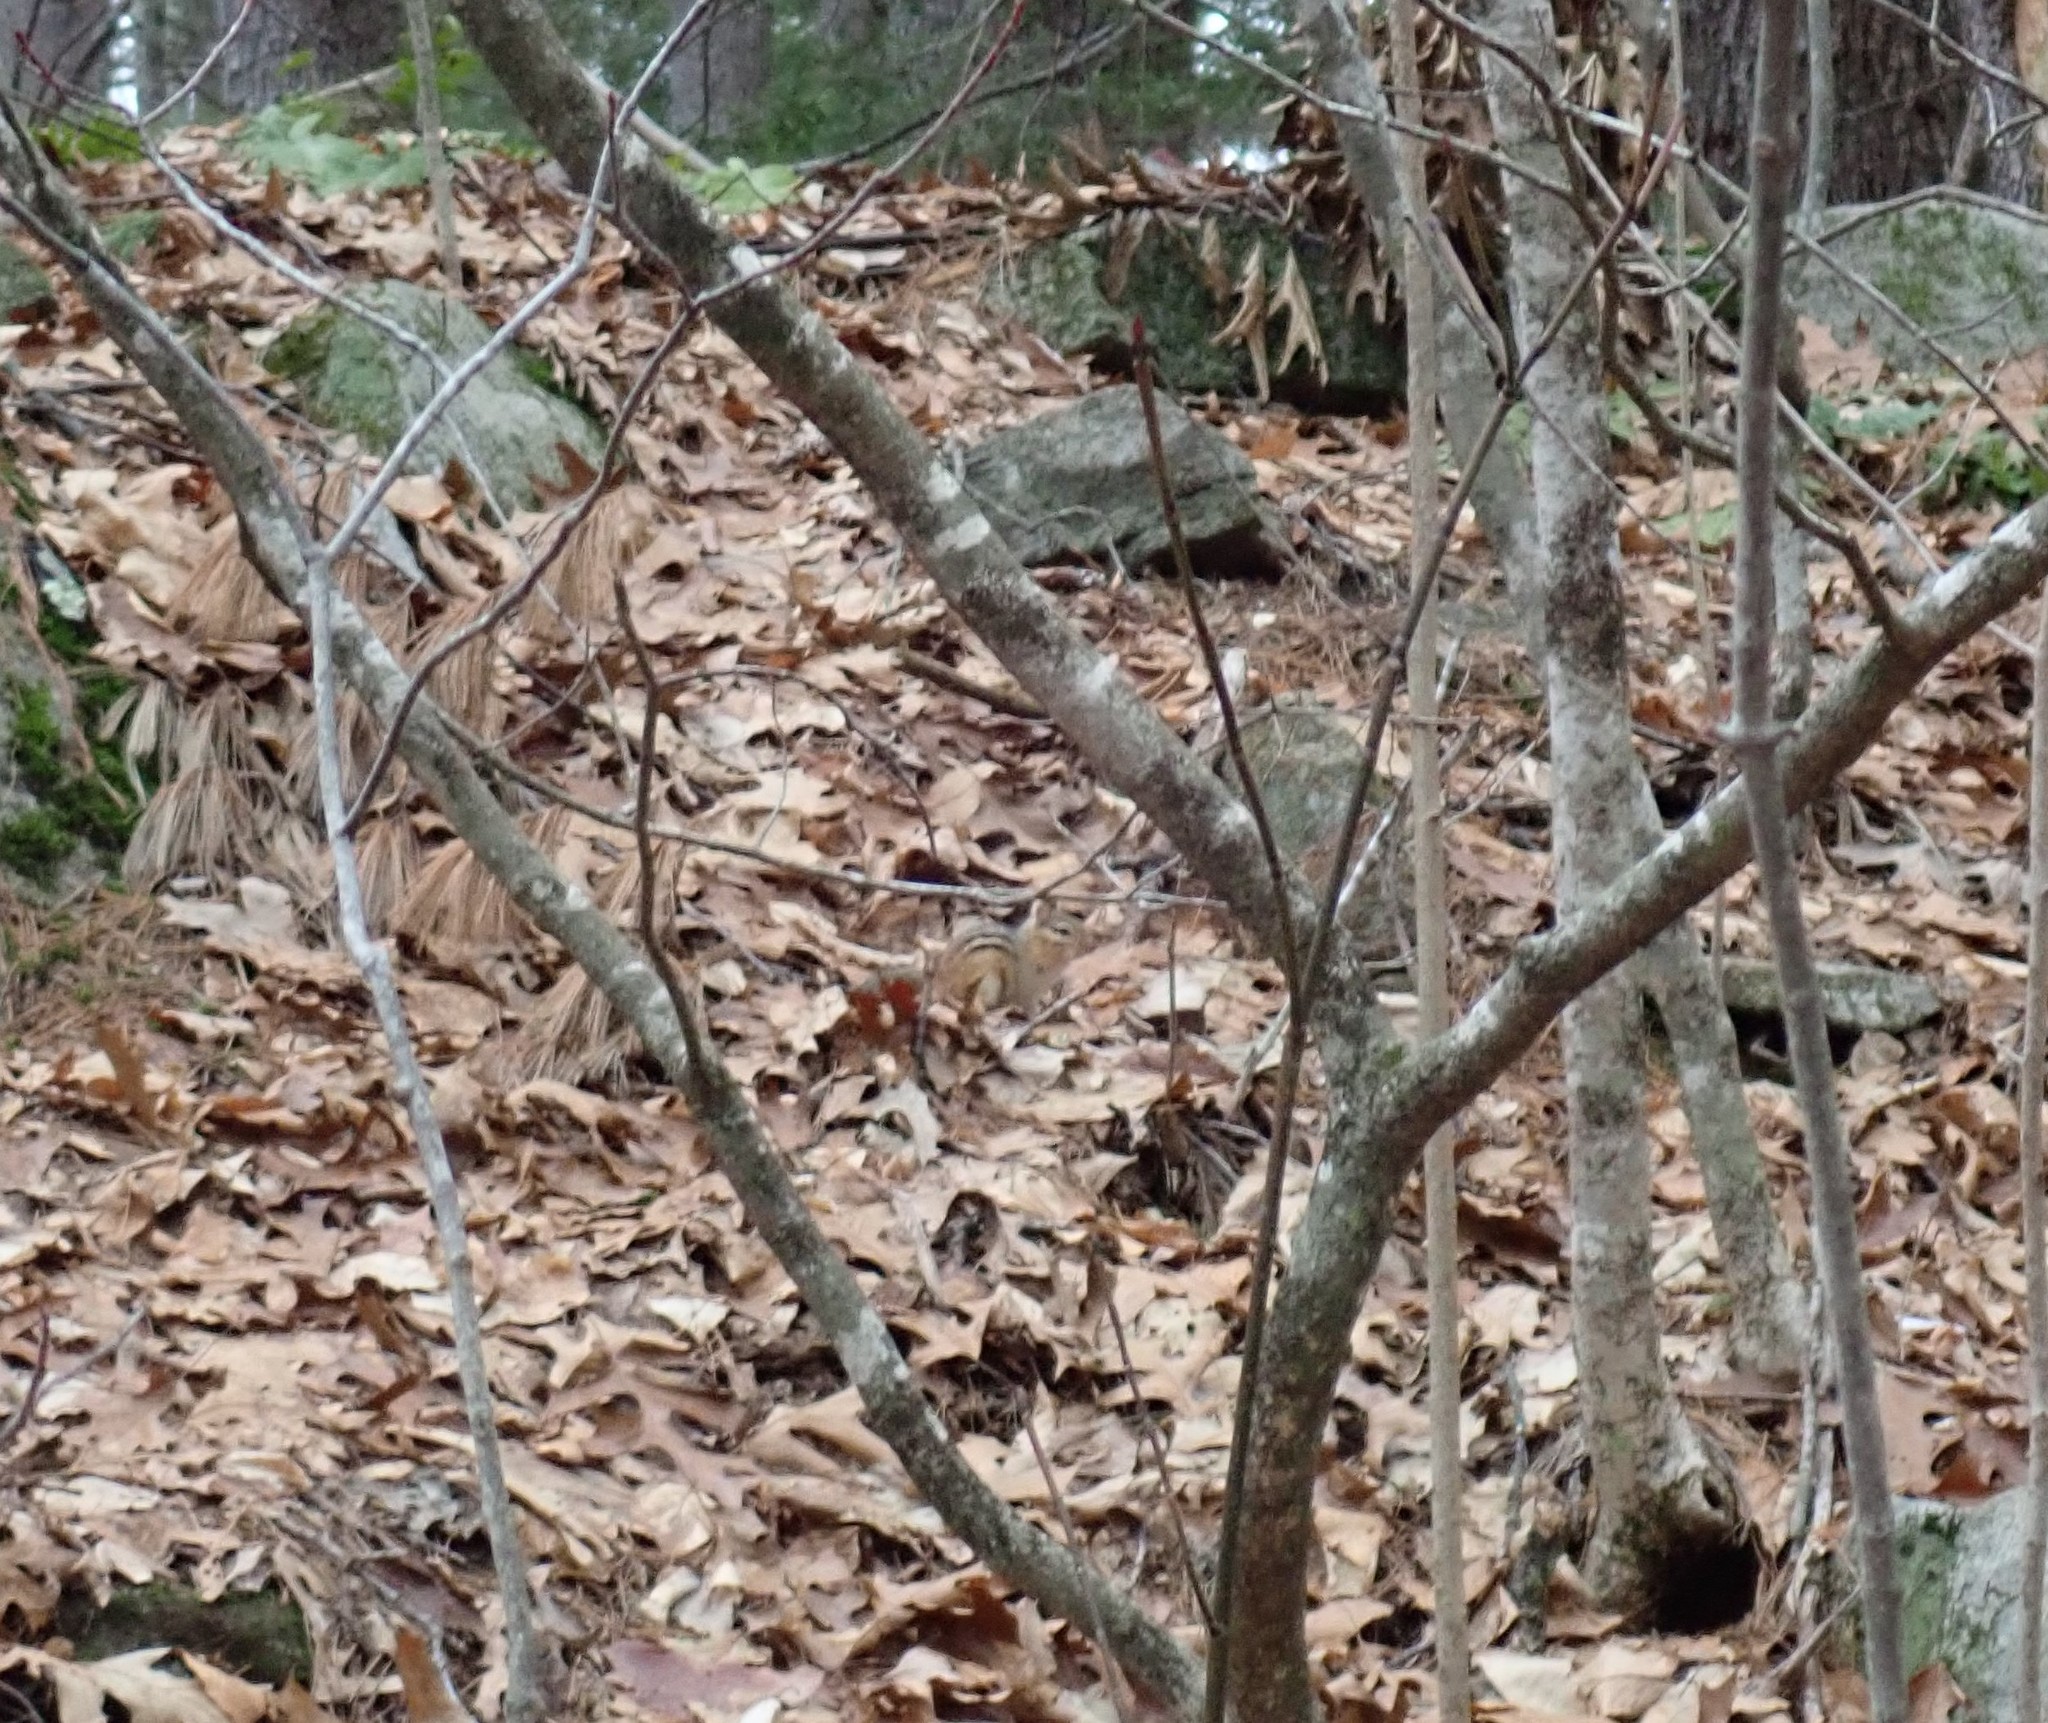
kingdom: Animalia
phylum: Chordata
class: Mammalia
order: Rodentia
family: Sciuridae
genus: Tamias
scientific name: Tamias striatus
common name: Eastern chipmunk
